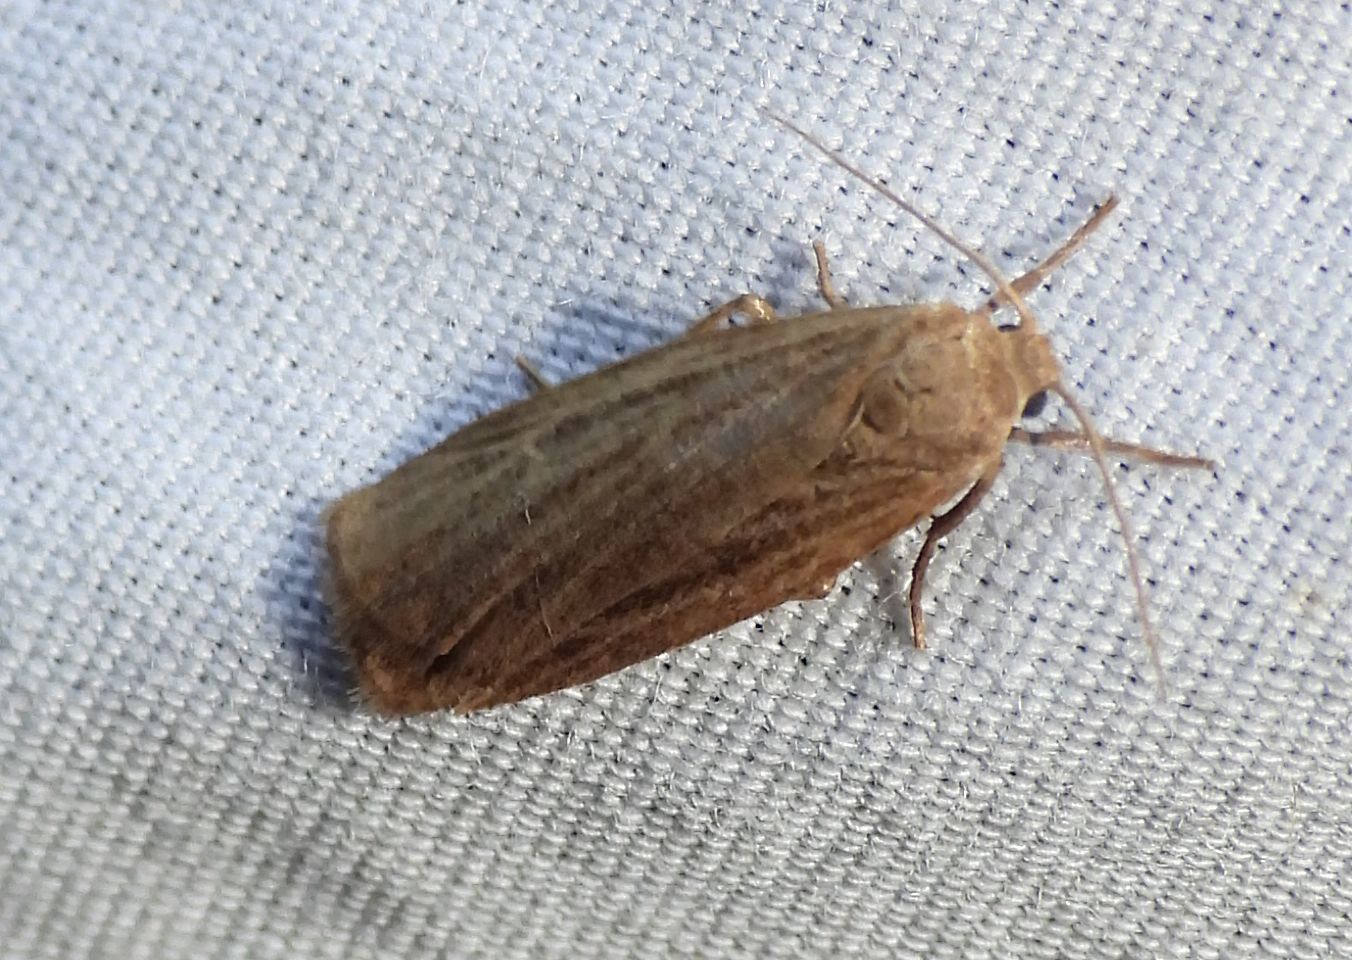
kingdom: Animalia
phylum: Arthropoda
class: Insecta
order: Lepidoptera
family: Erebidae
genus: Crambidia
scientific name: Crambidia pallida
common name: Pale lichen moth
